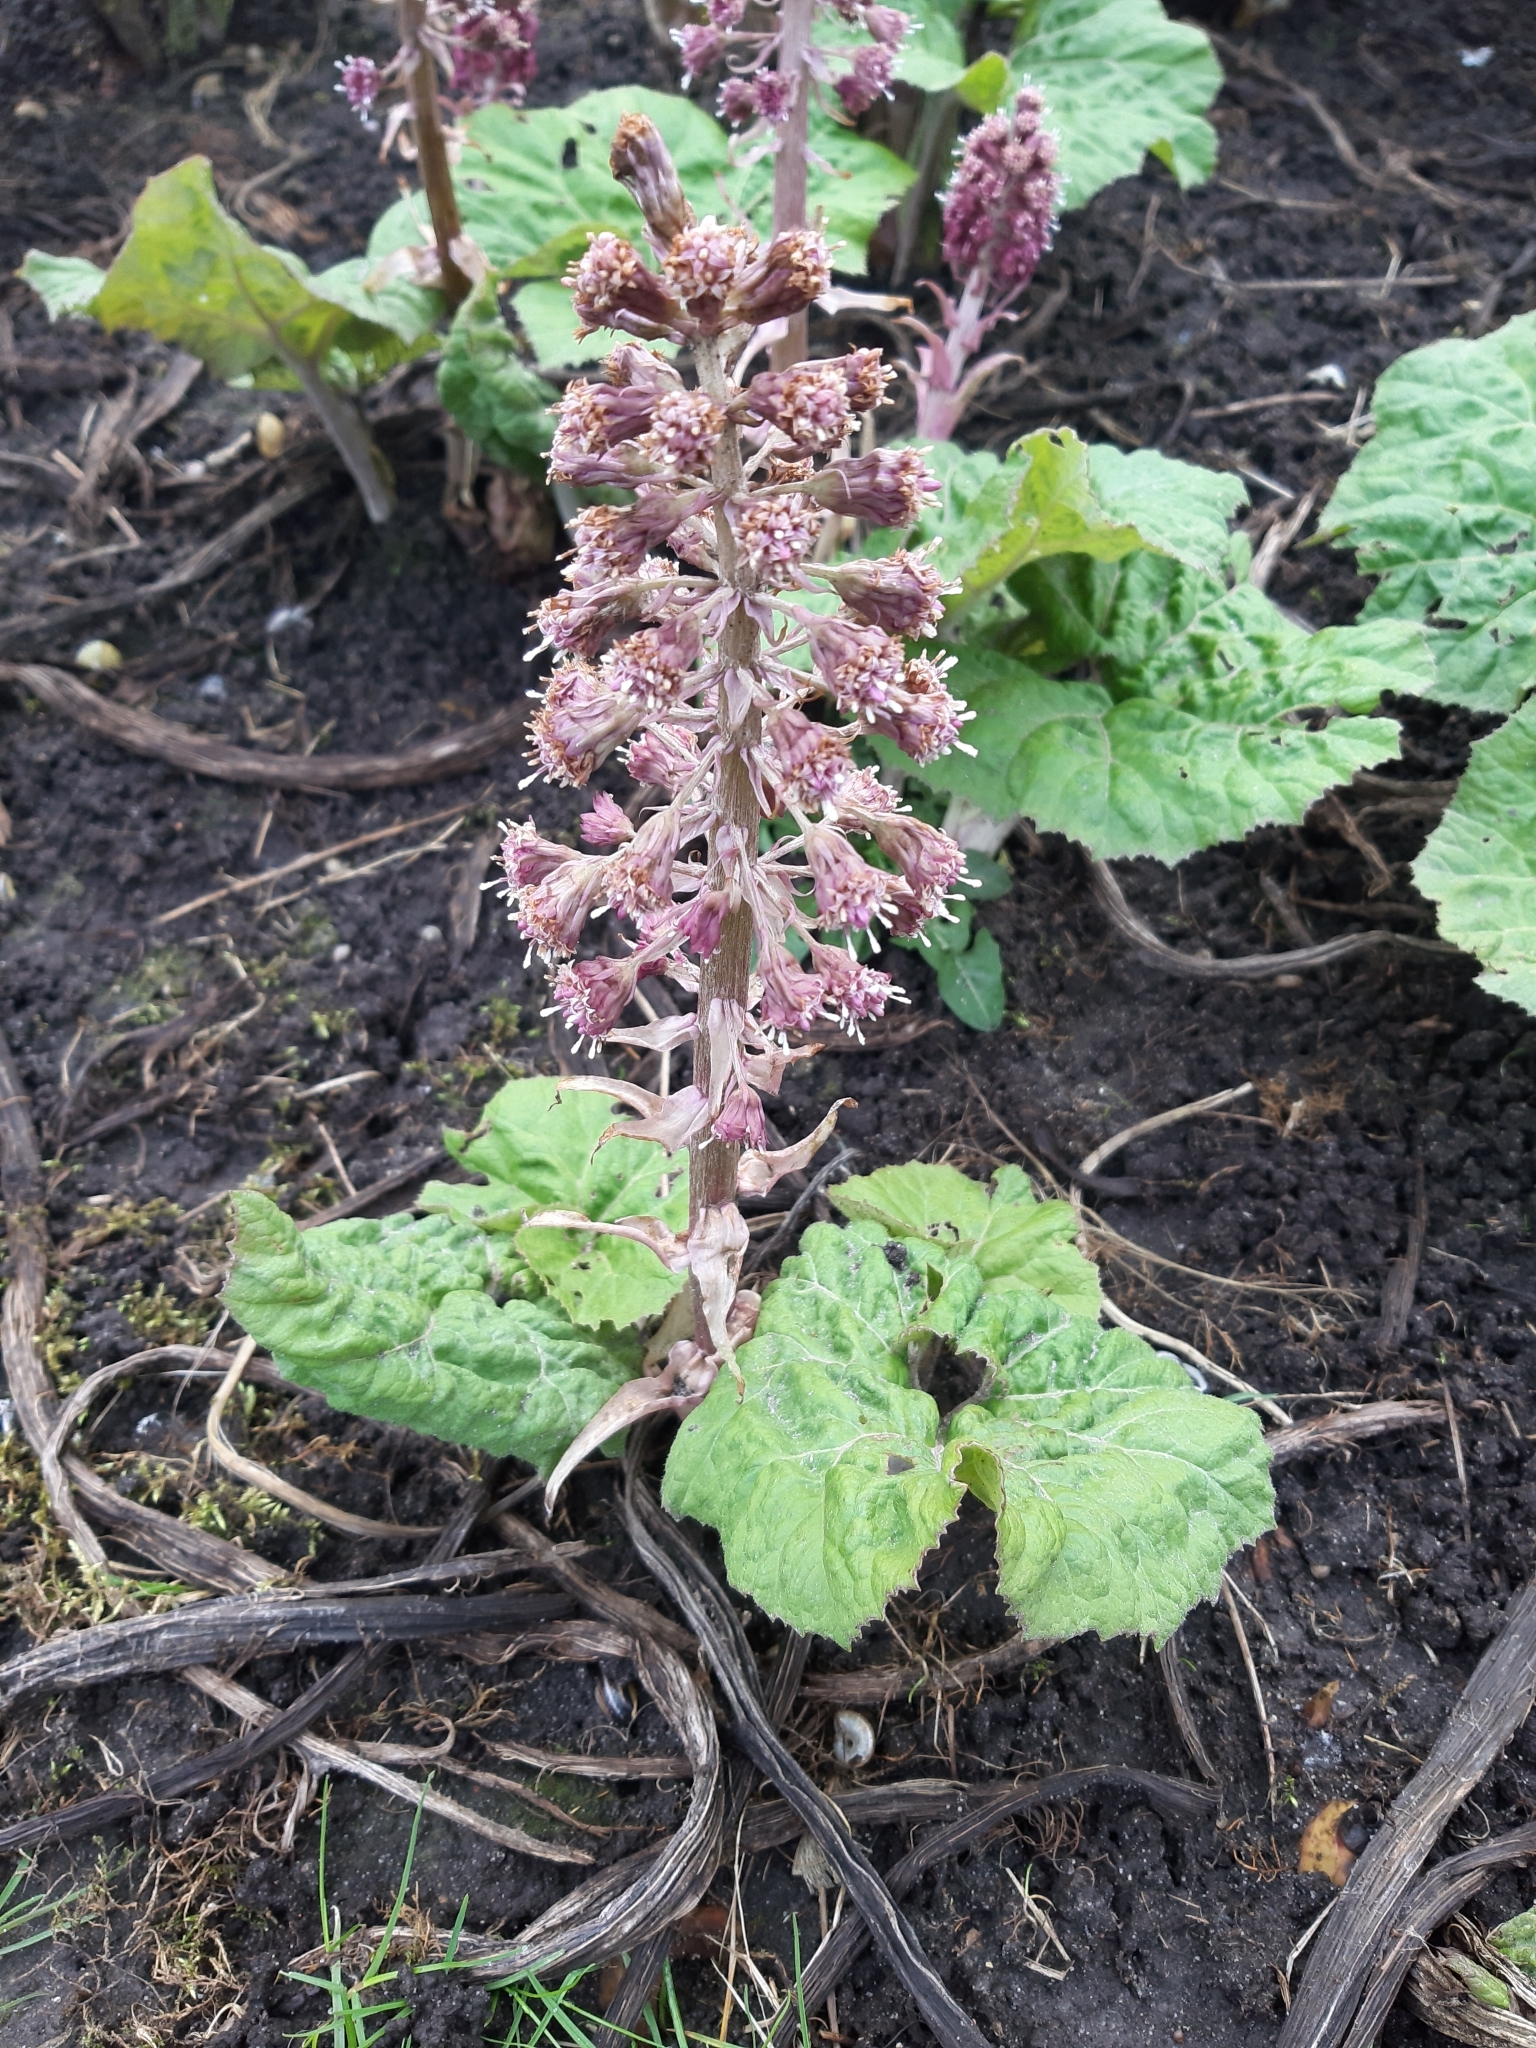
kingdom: Plantae
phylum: Tracheophyta
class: Magnoliopsida
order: Asterales
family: Asteraceae
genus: Petasites
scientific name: Petasites hybridus
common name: Butterbur
